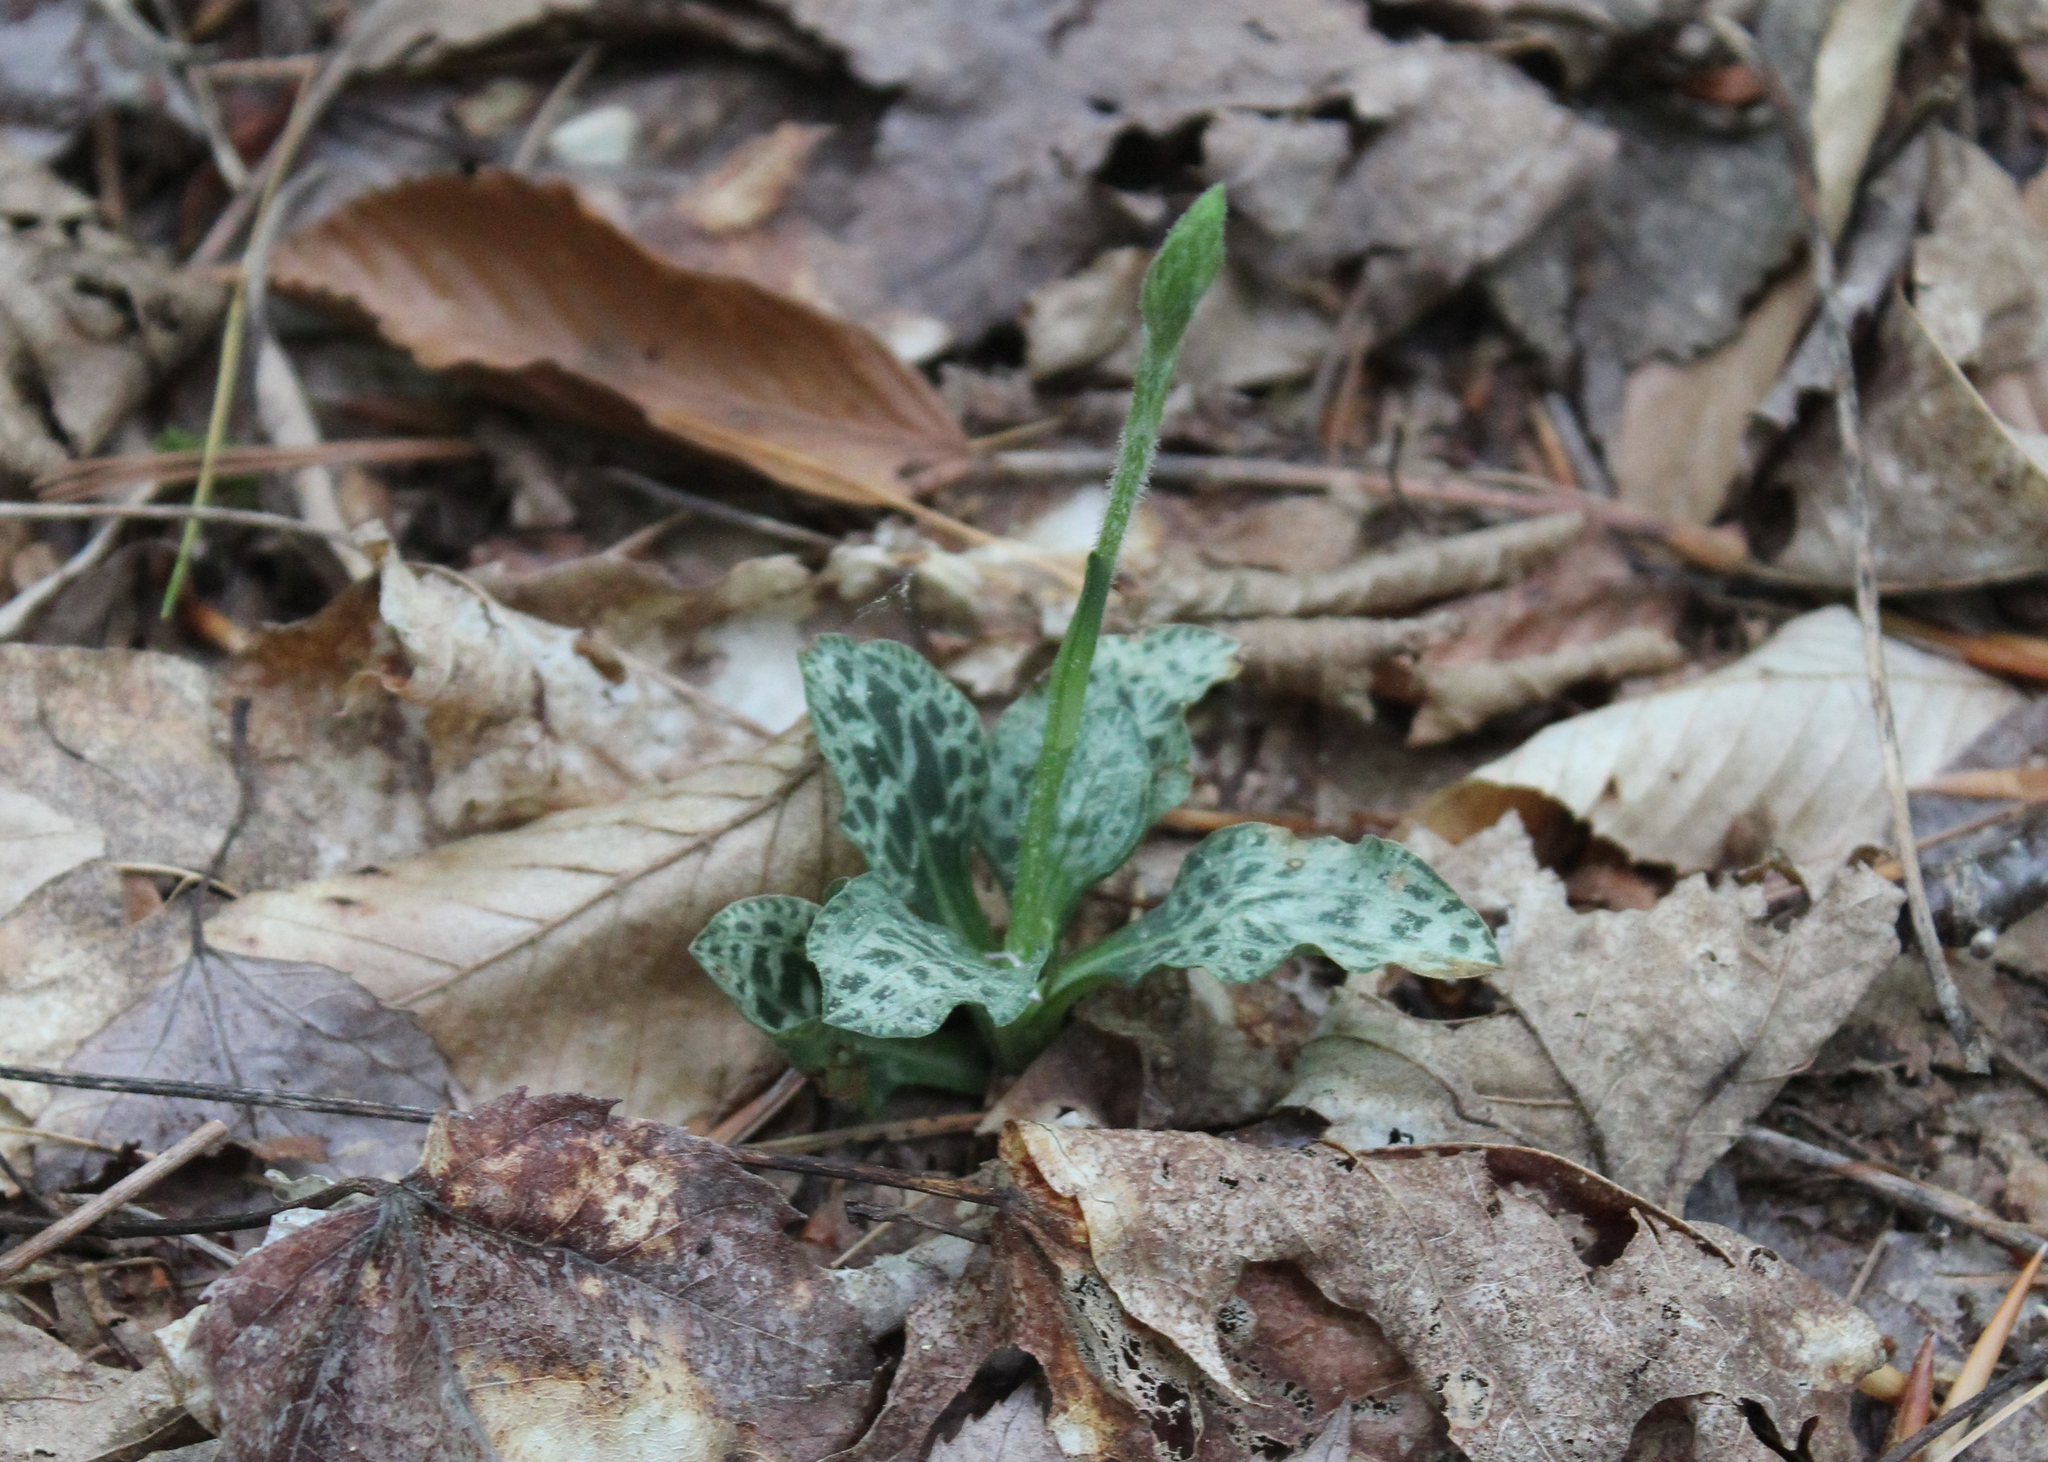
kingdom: Plantae
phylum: Tracheophyta
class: Liliopsida
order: Asparagales
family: Orchidaceae
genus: Goodyera
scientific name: Goodyera tesselata
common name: Checkered rattlesnake-plantain
